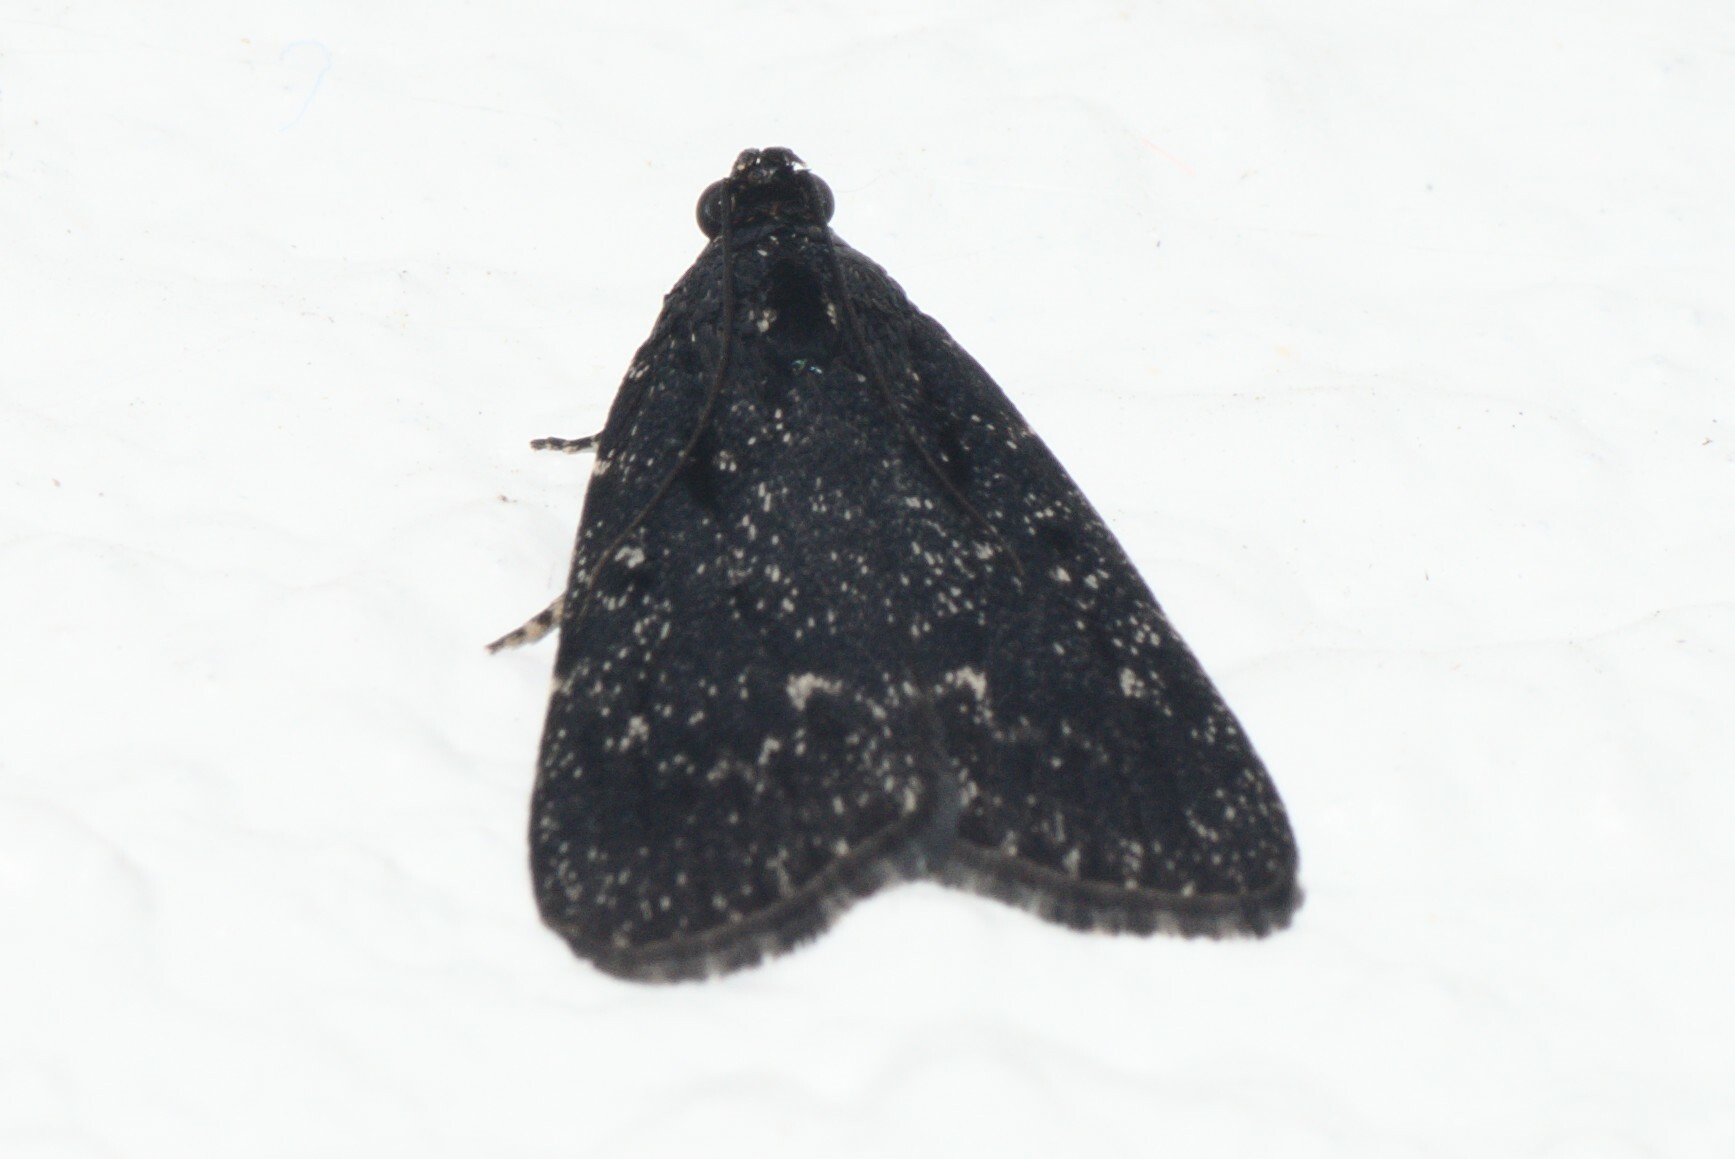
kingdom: Animalia
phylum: Arthropoda
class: Insecta
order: Lepidoptera
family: Pyralidae
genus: Stericta
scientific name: Stericta carbonalis
